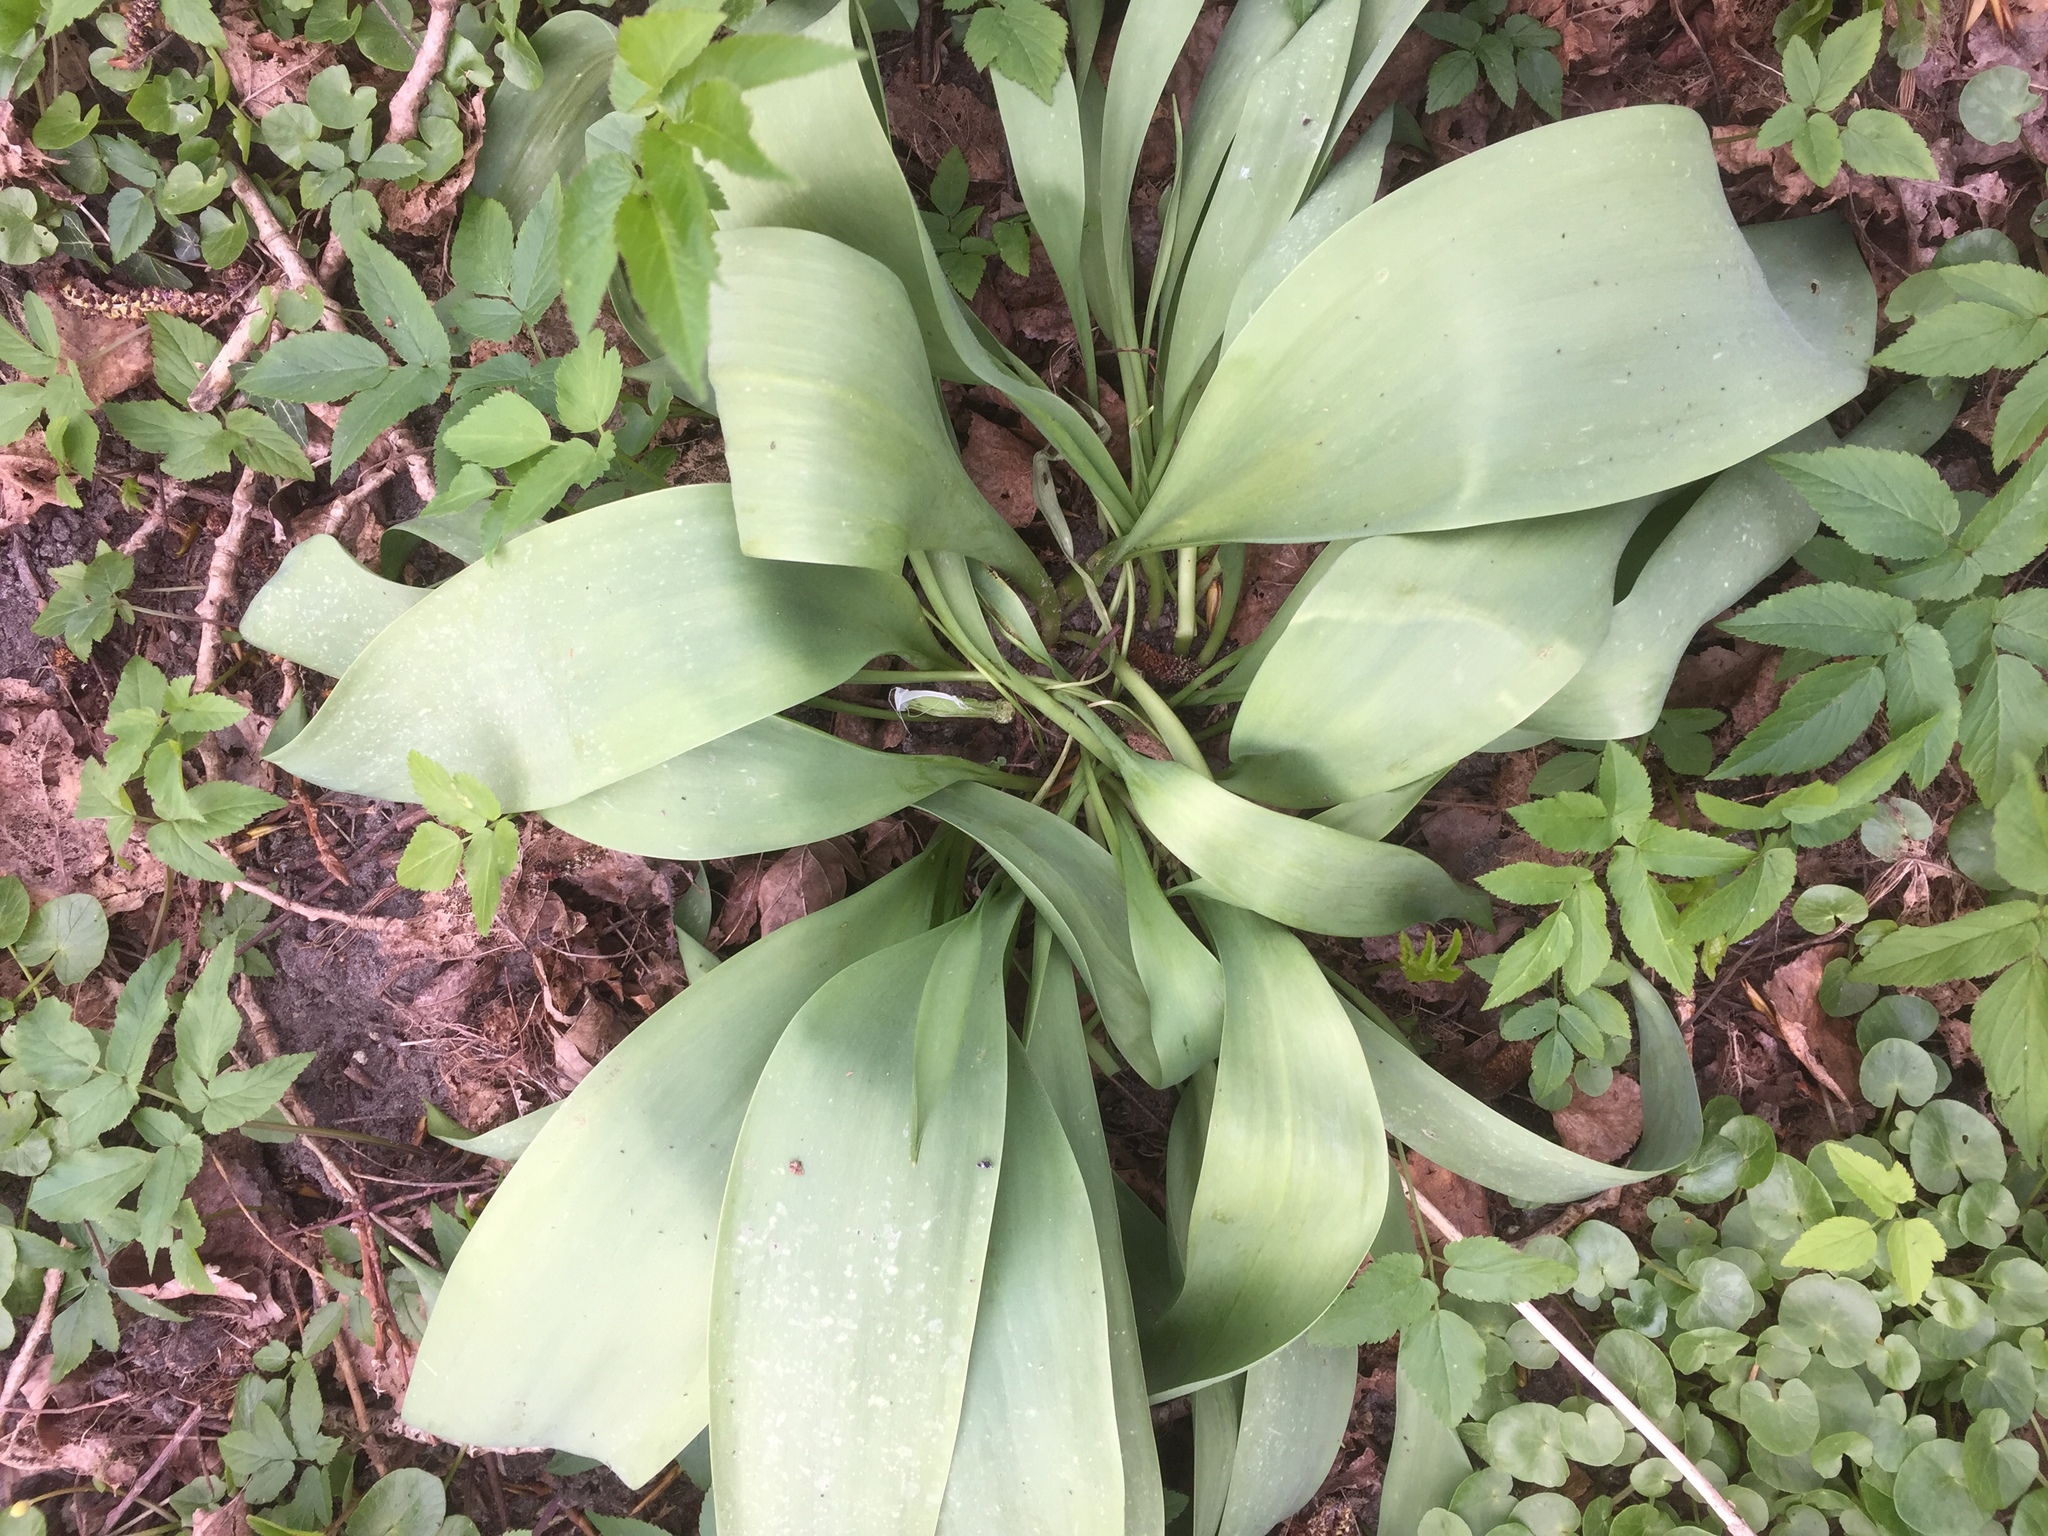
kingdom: Plantae
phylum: Tracheophyta
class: Liliopsida
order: Liliales
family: Liliaceae
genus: Tulipa
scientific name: Tulipa gesneriana
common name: Garden tulip
